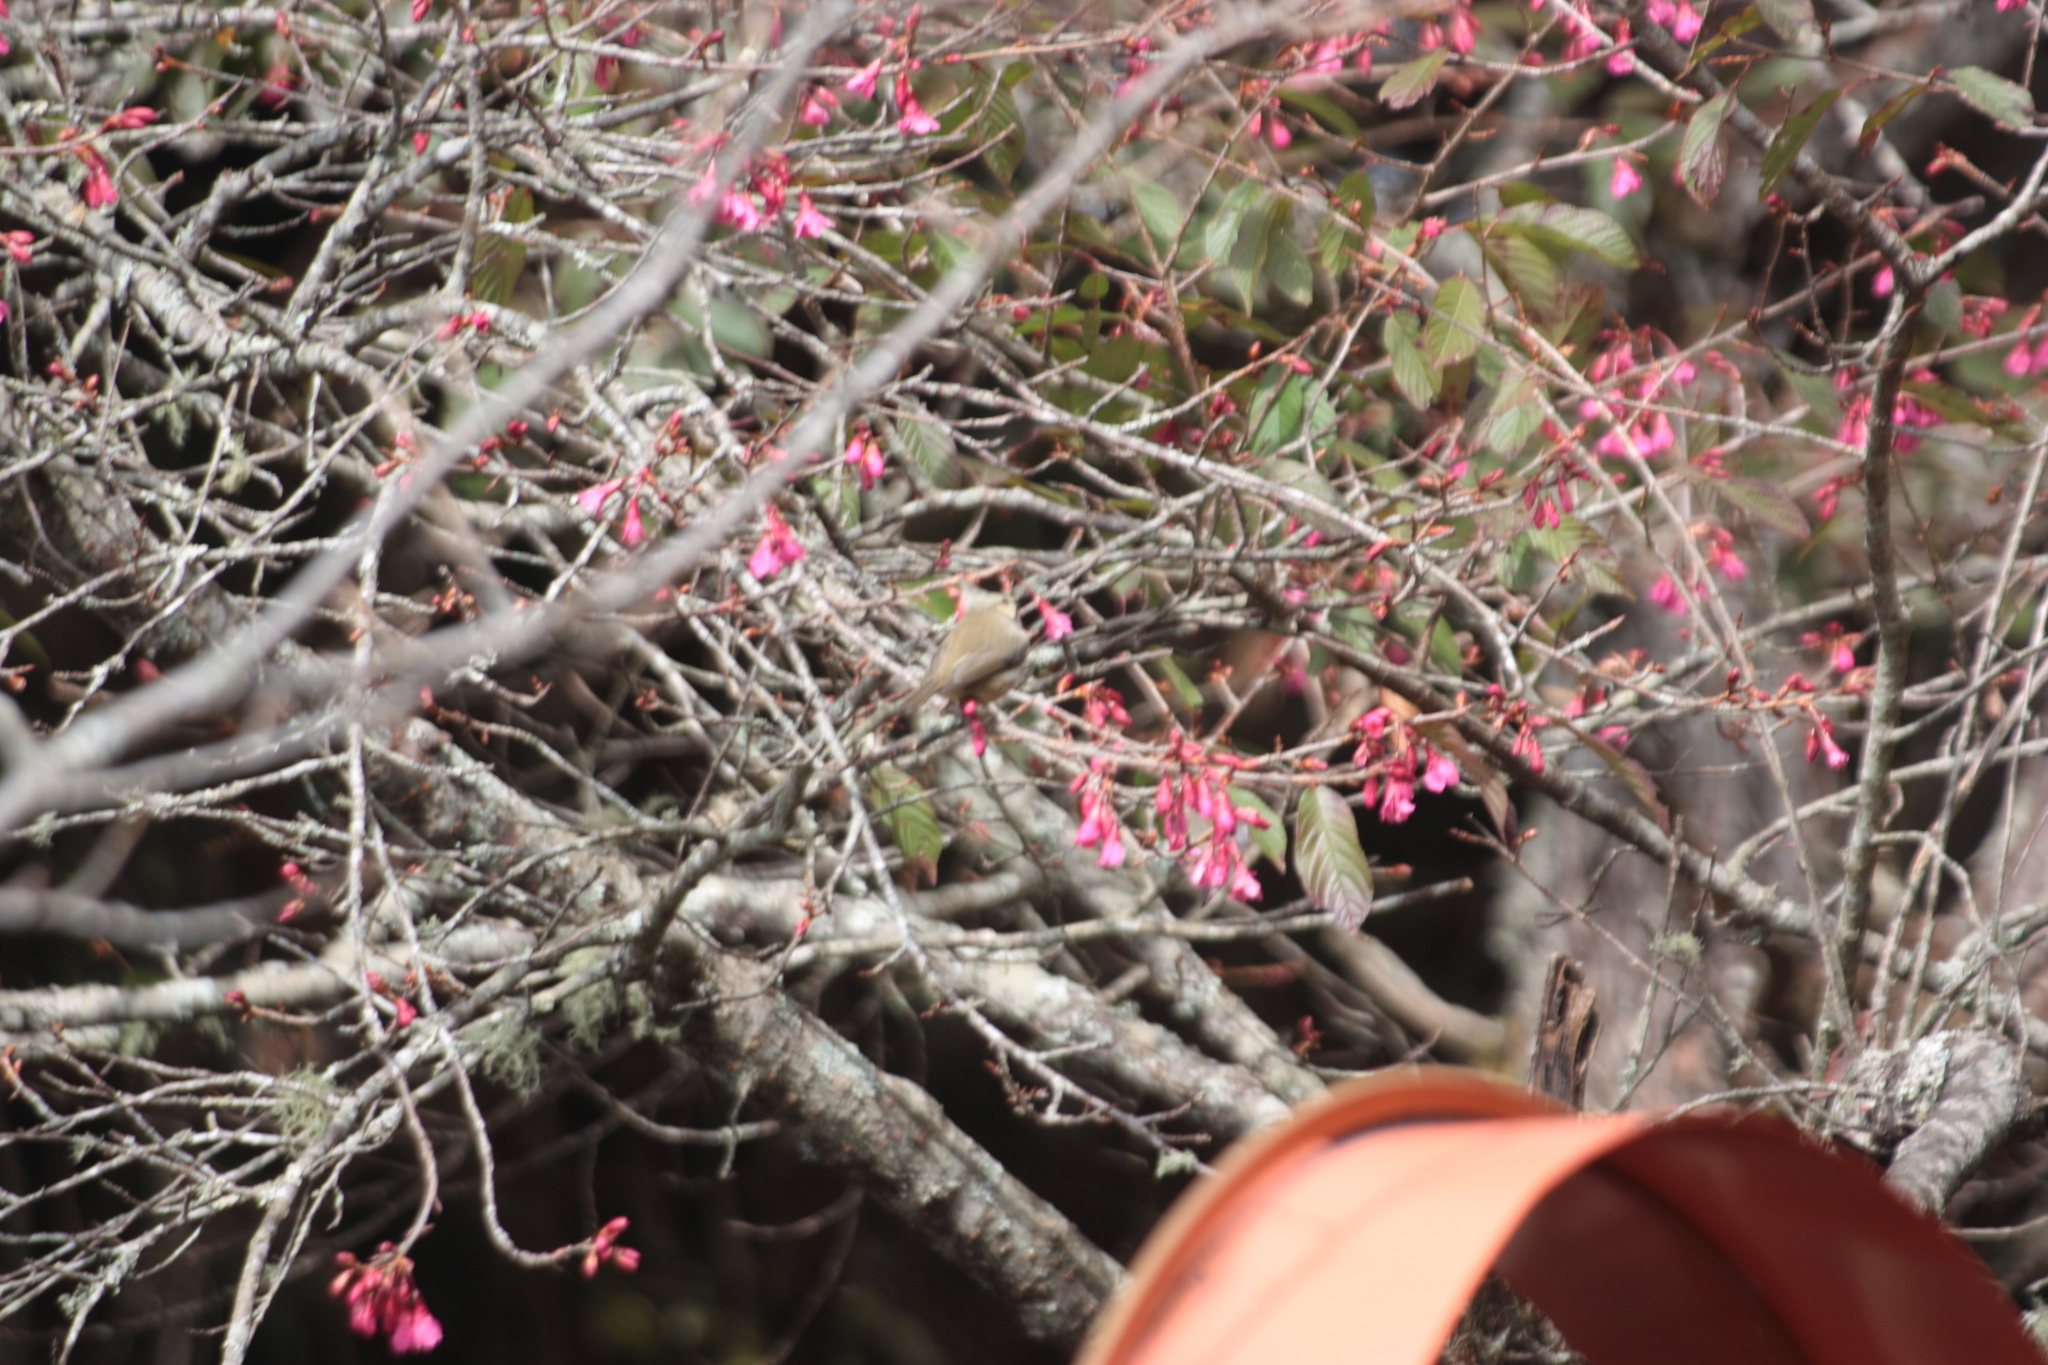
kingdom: Animalia
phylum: Chordata
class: Aves
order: Passeriformes
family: Zosteropidae
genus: Yuhina
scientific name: Yuhina brunneiceps
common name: Taiwan yuhina
